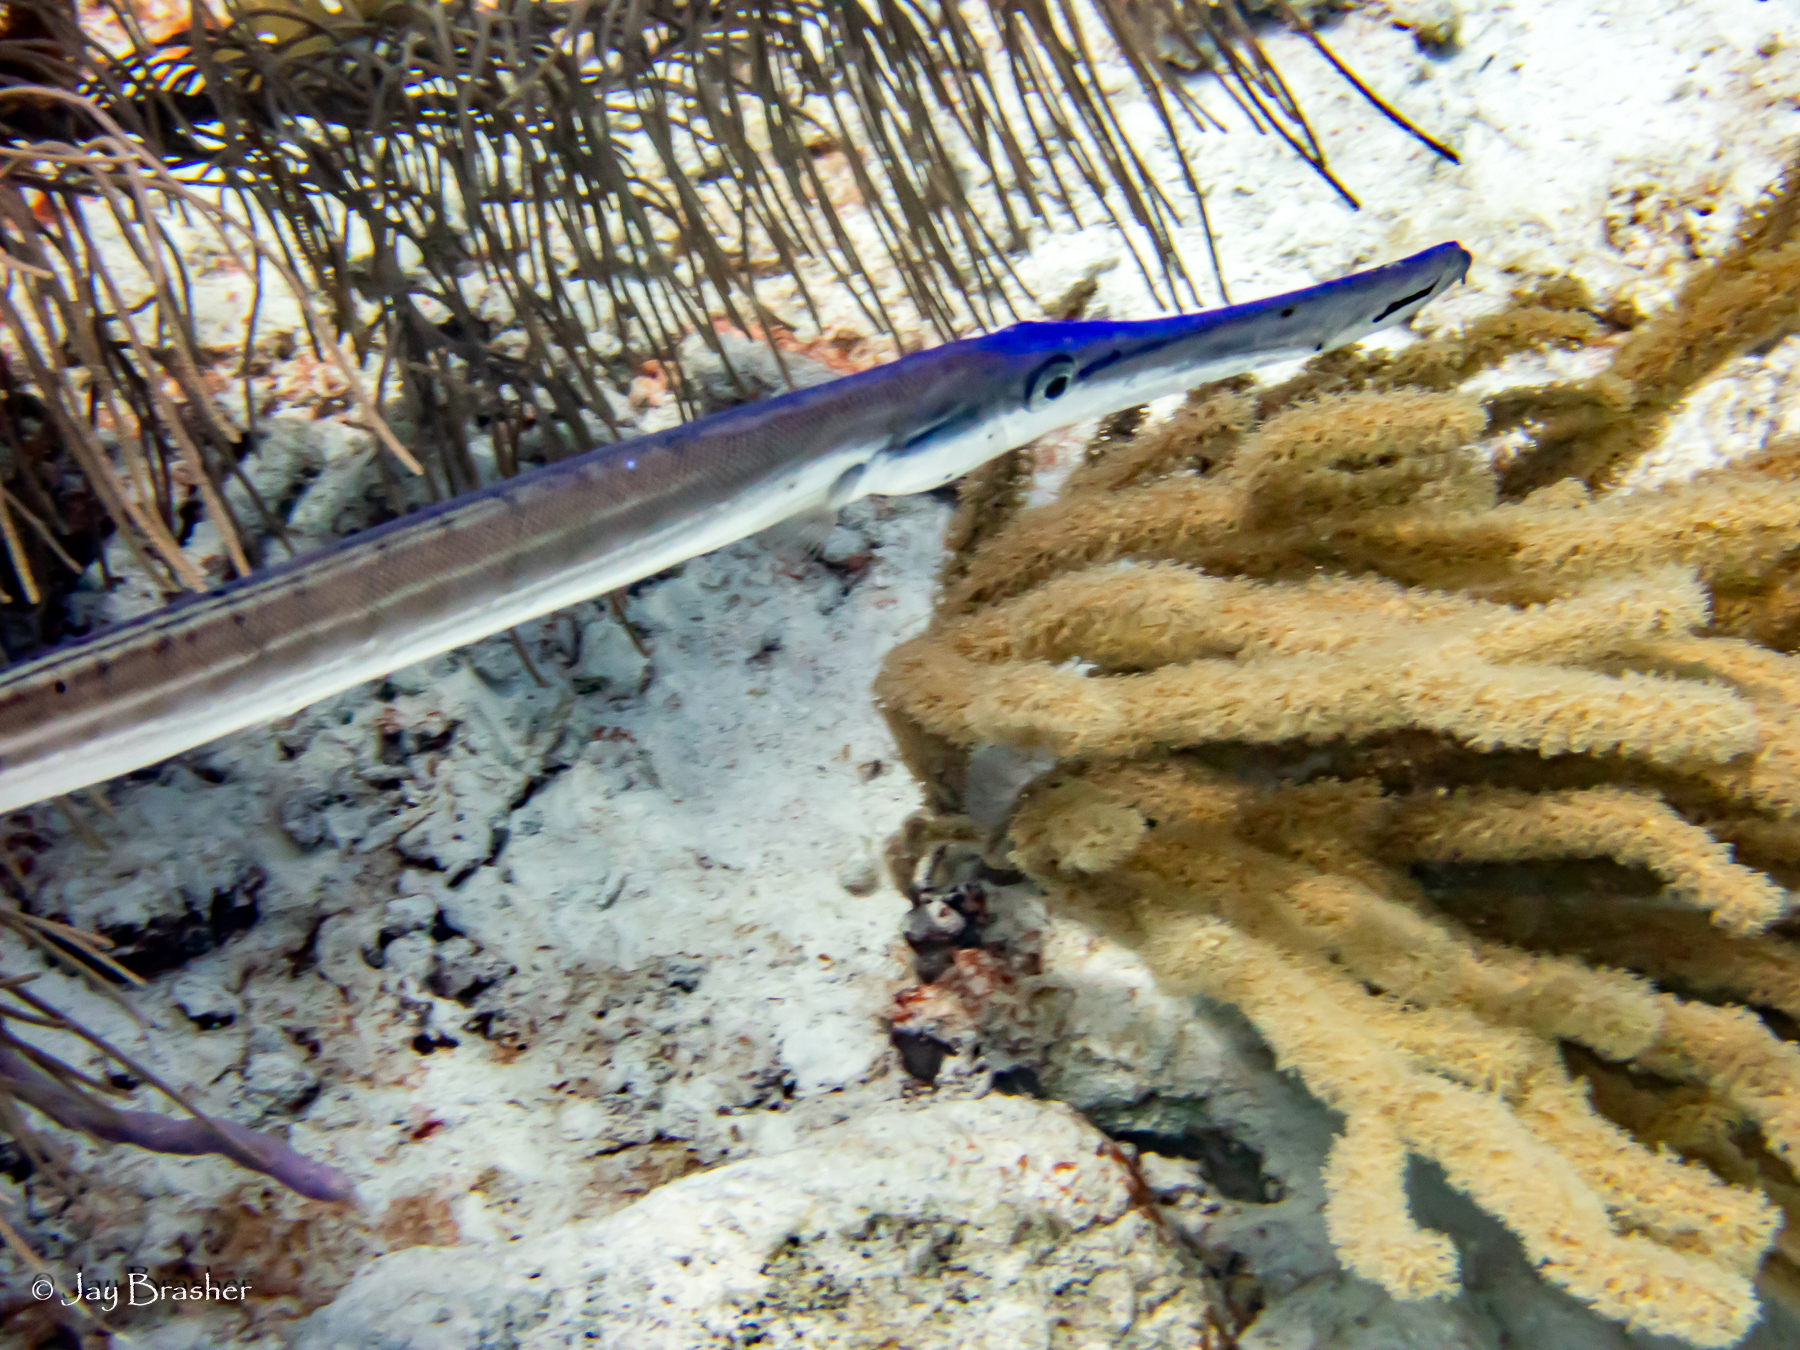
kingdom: Animalia
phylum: Chordata
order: Syngnathiformes
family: Aulostomidae
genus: Aulostomus
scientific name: Aulostomus maculatus
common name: West atlantic trumpetfish
